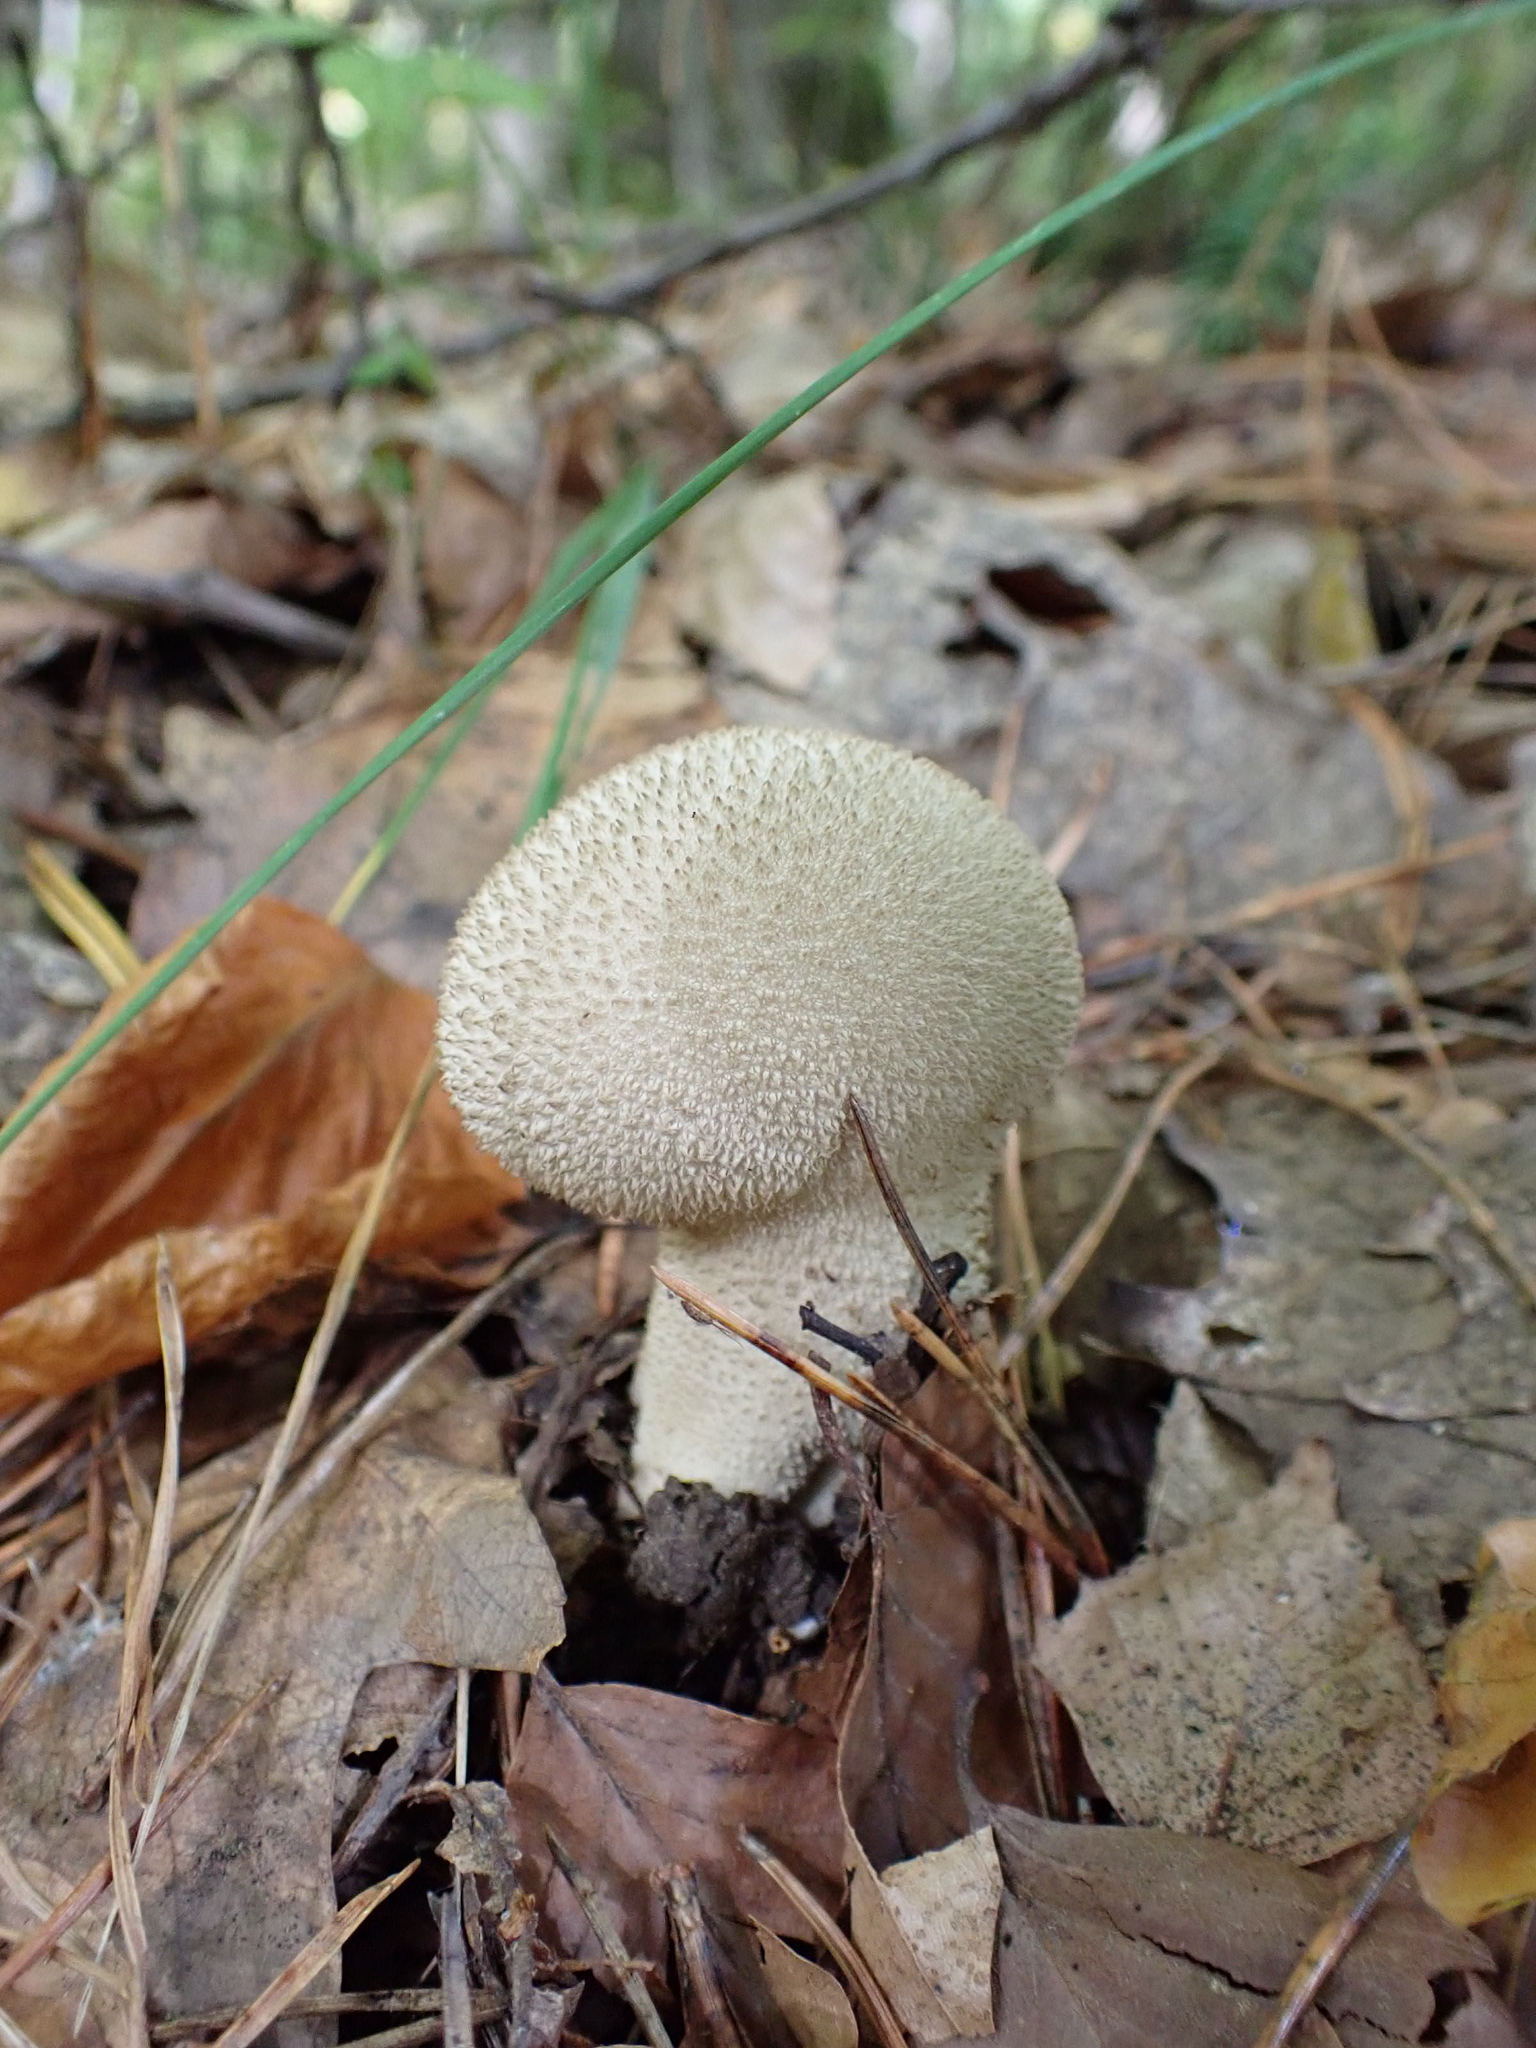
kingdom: Fungi
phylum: Basidiomycota
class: Agaricomycetes
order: Agaricales
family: Lycoperdaceae
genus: Lycoperdon
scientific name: Lycoperdon perlatum
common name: Common puffball
